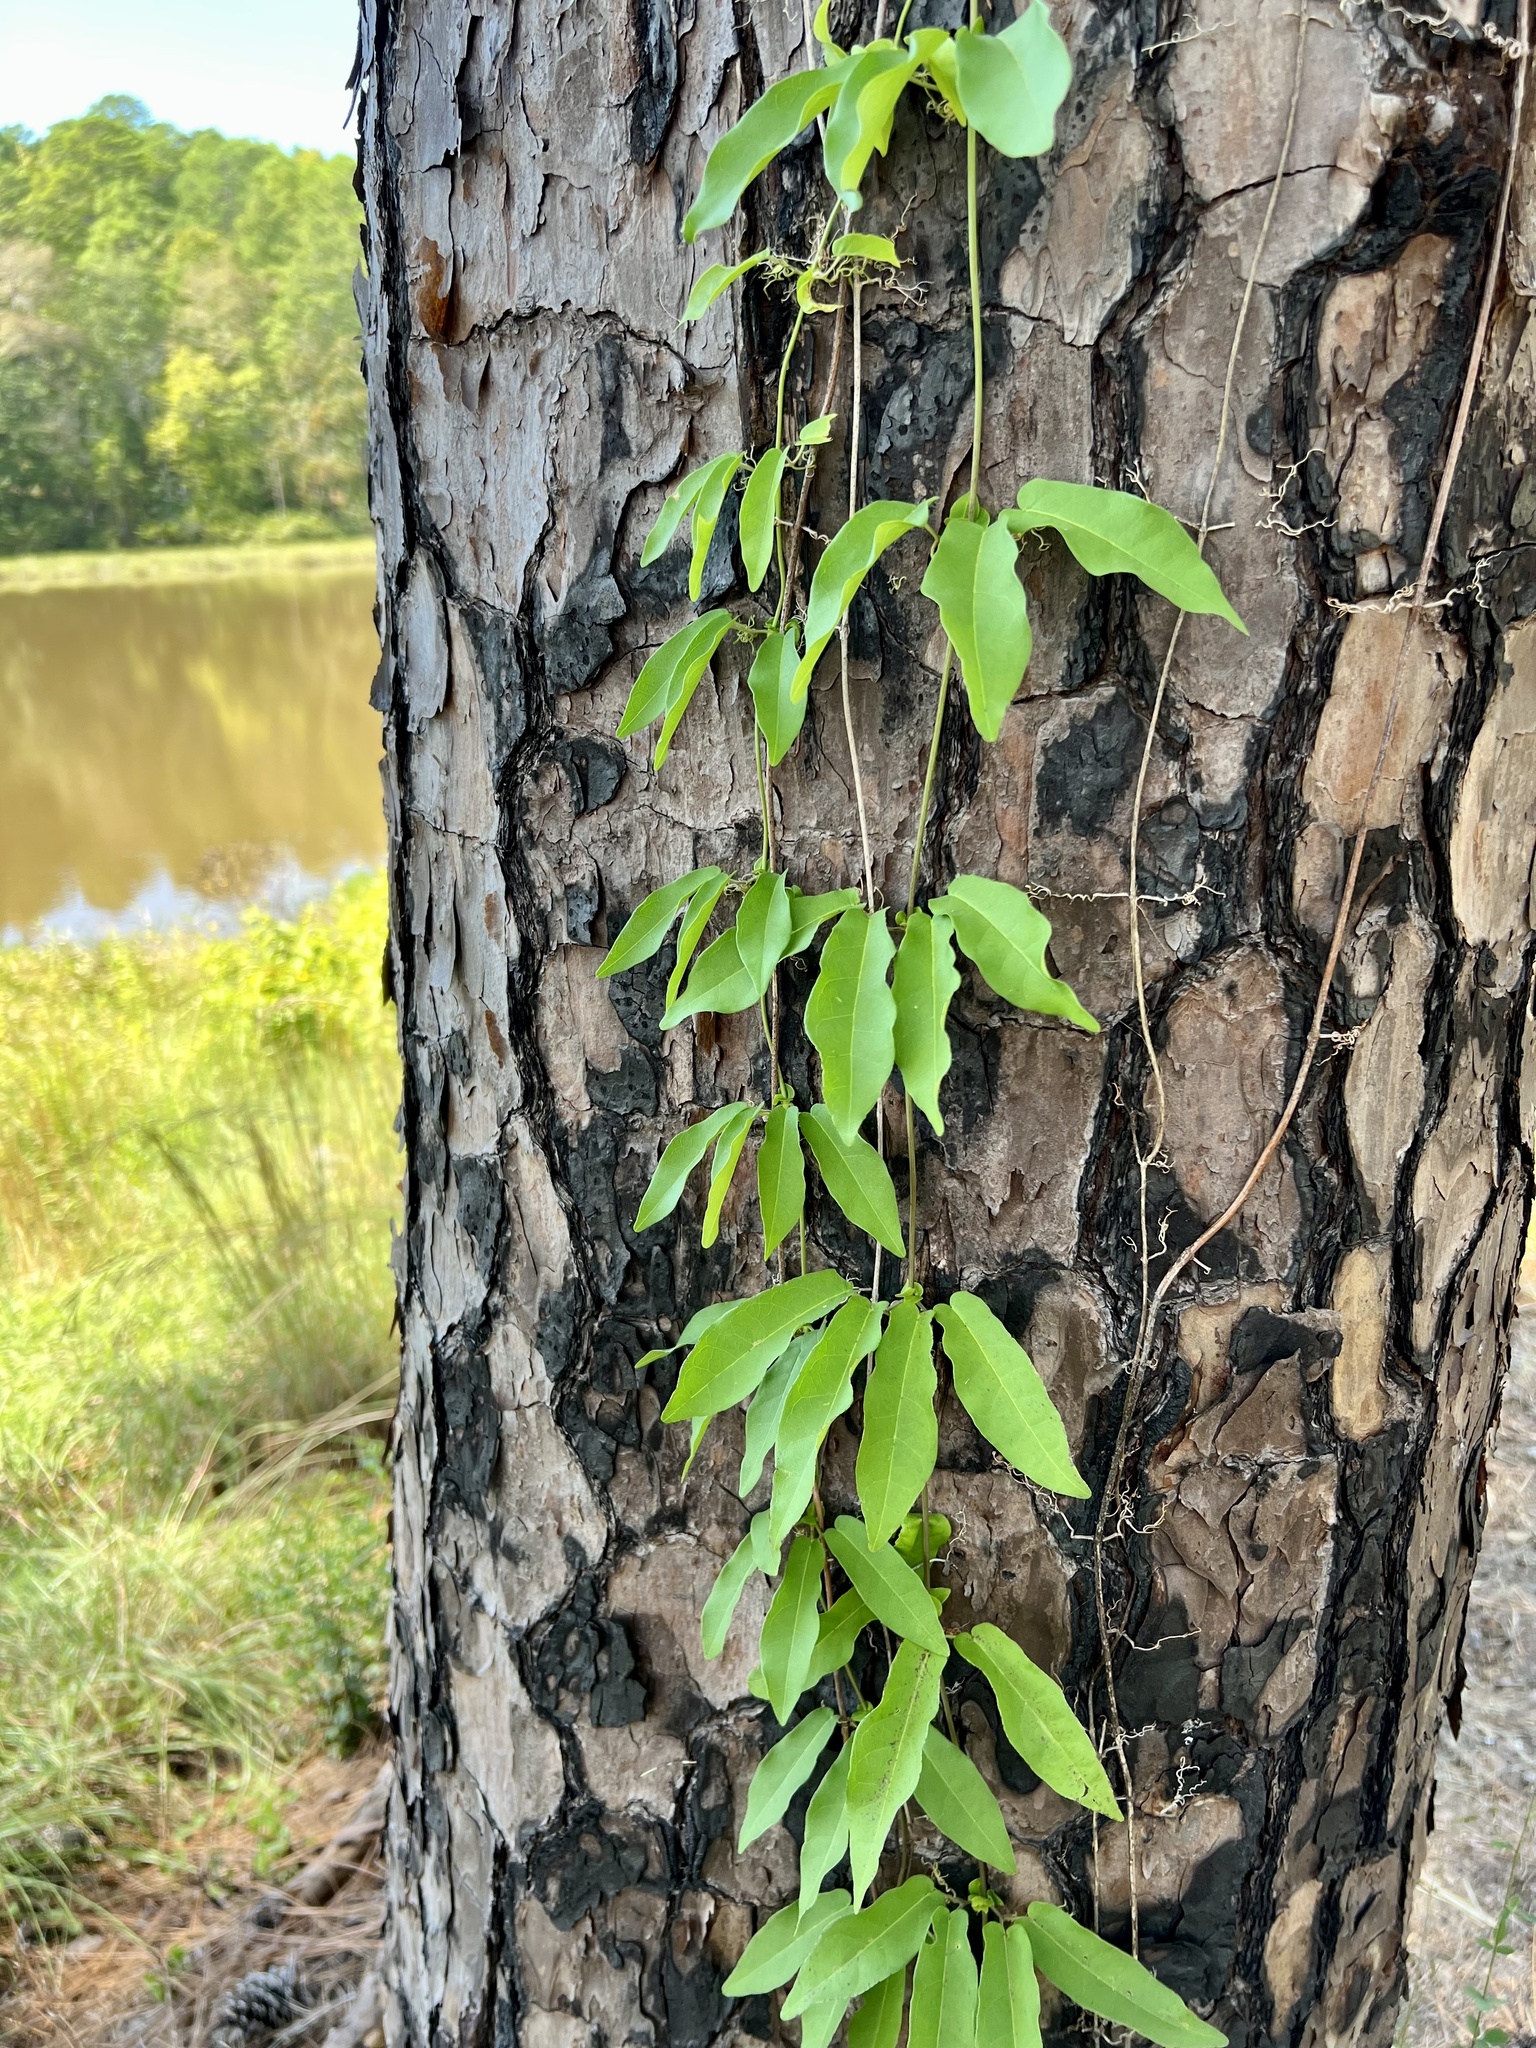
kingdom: Plantae
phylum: Tracheophyta
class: Magnoliopsida
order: Lamiales
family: Bignoniaceae
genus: Bignonia
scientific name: Bignonia capreolata
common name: Crossvine
